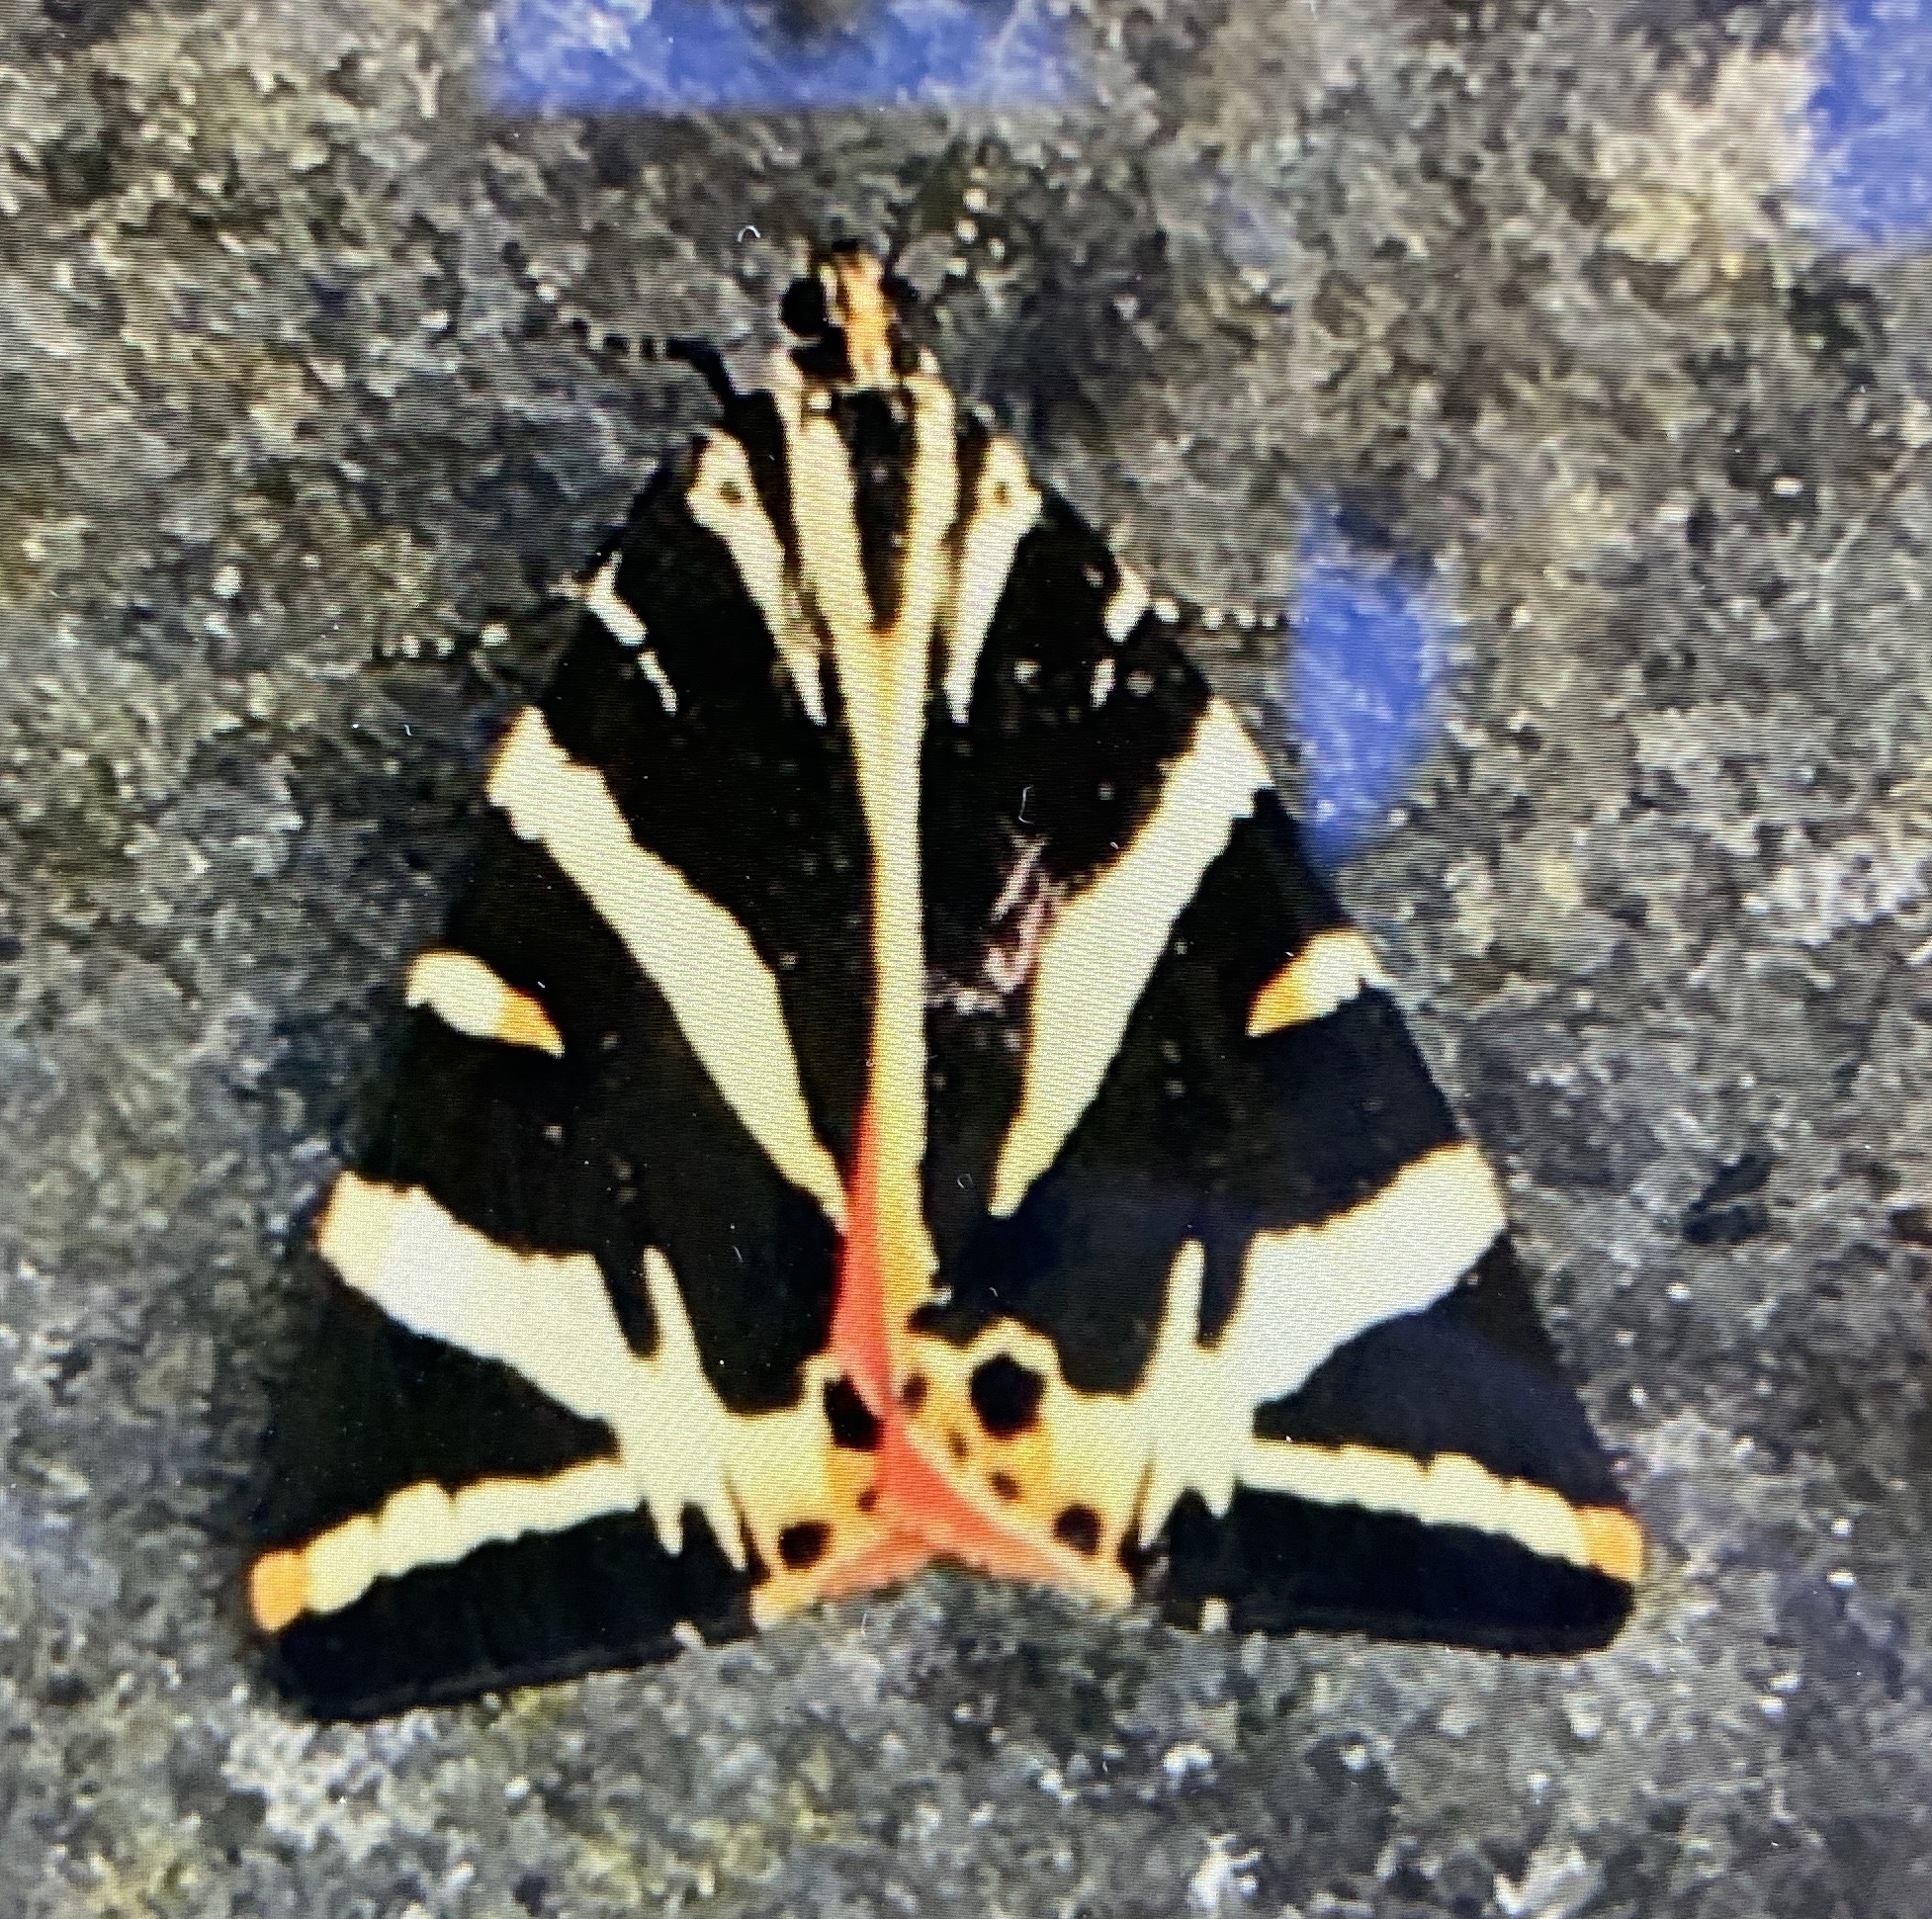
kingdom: Animalia
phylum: Arthropoda
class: Insecta
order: Lepidoptera
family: Erebidae
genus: Euplagia
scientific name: Euplagia quadripunctaria
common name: Jersey tiger
